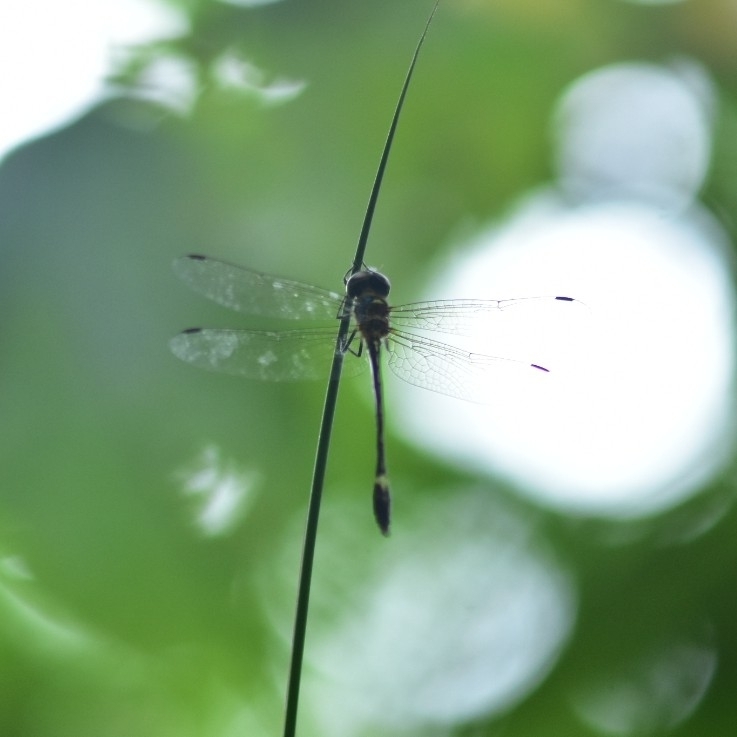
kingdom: Animalia
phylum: Arthropoda
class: Insecta
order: Odonata
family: Corduliidae
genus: Macromidia
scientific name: Macromidia donaldi
